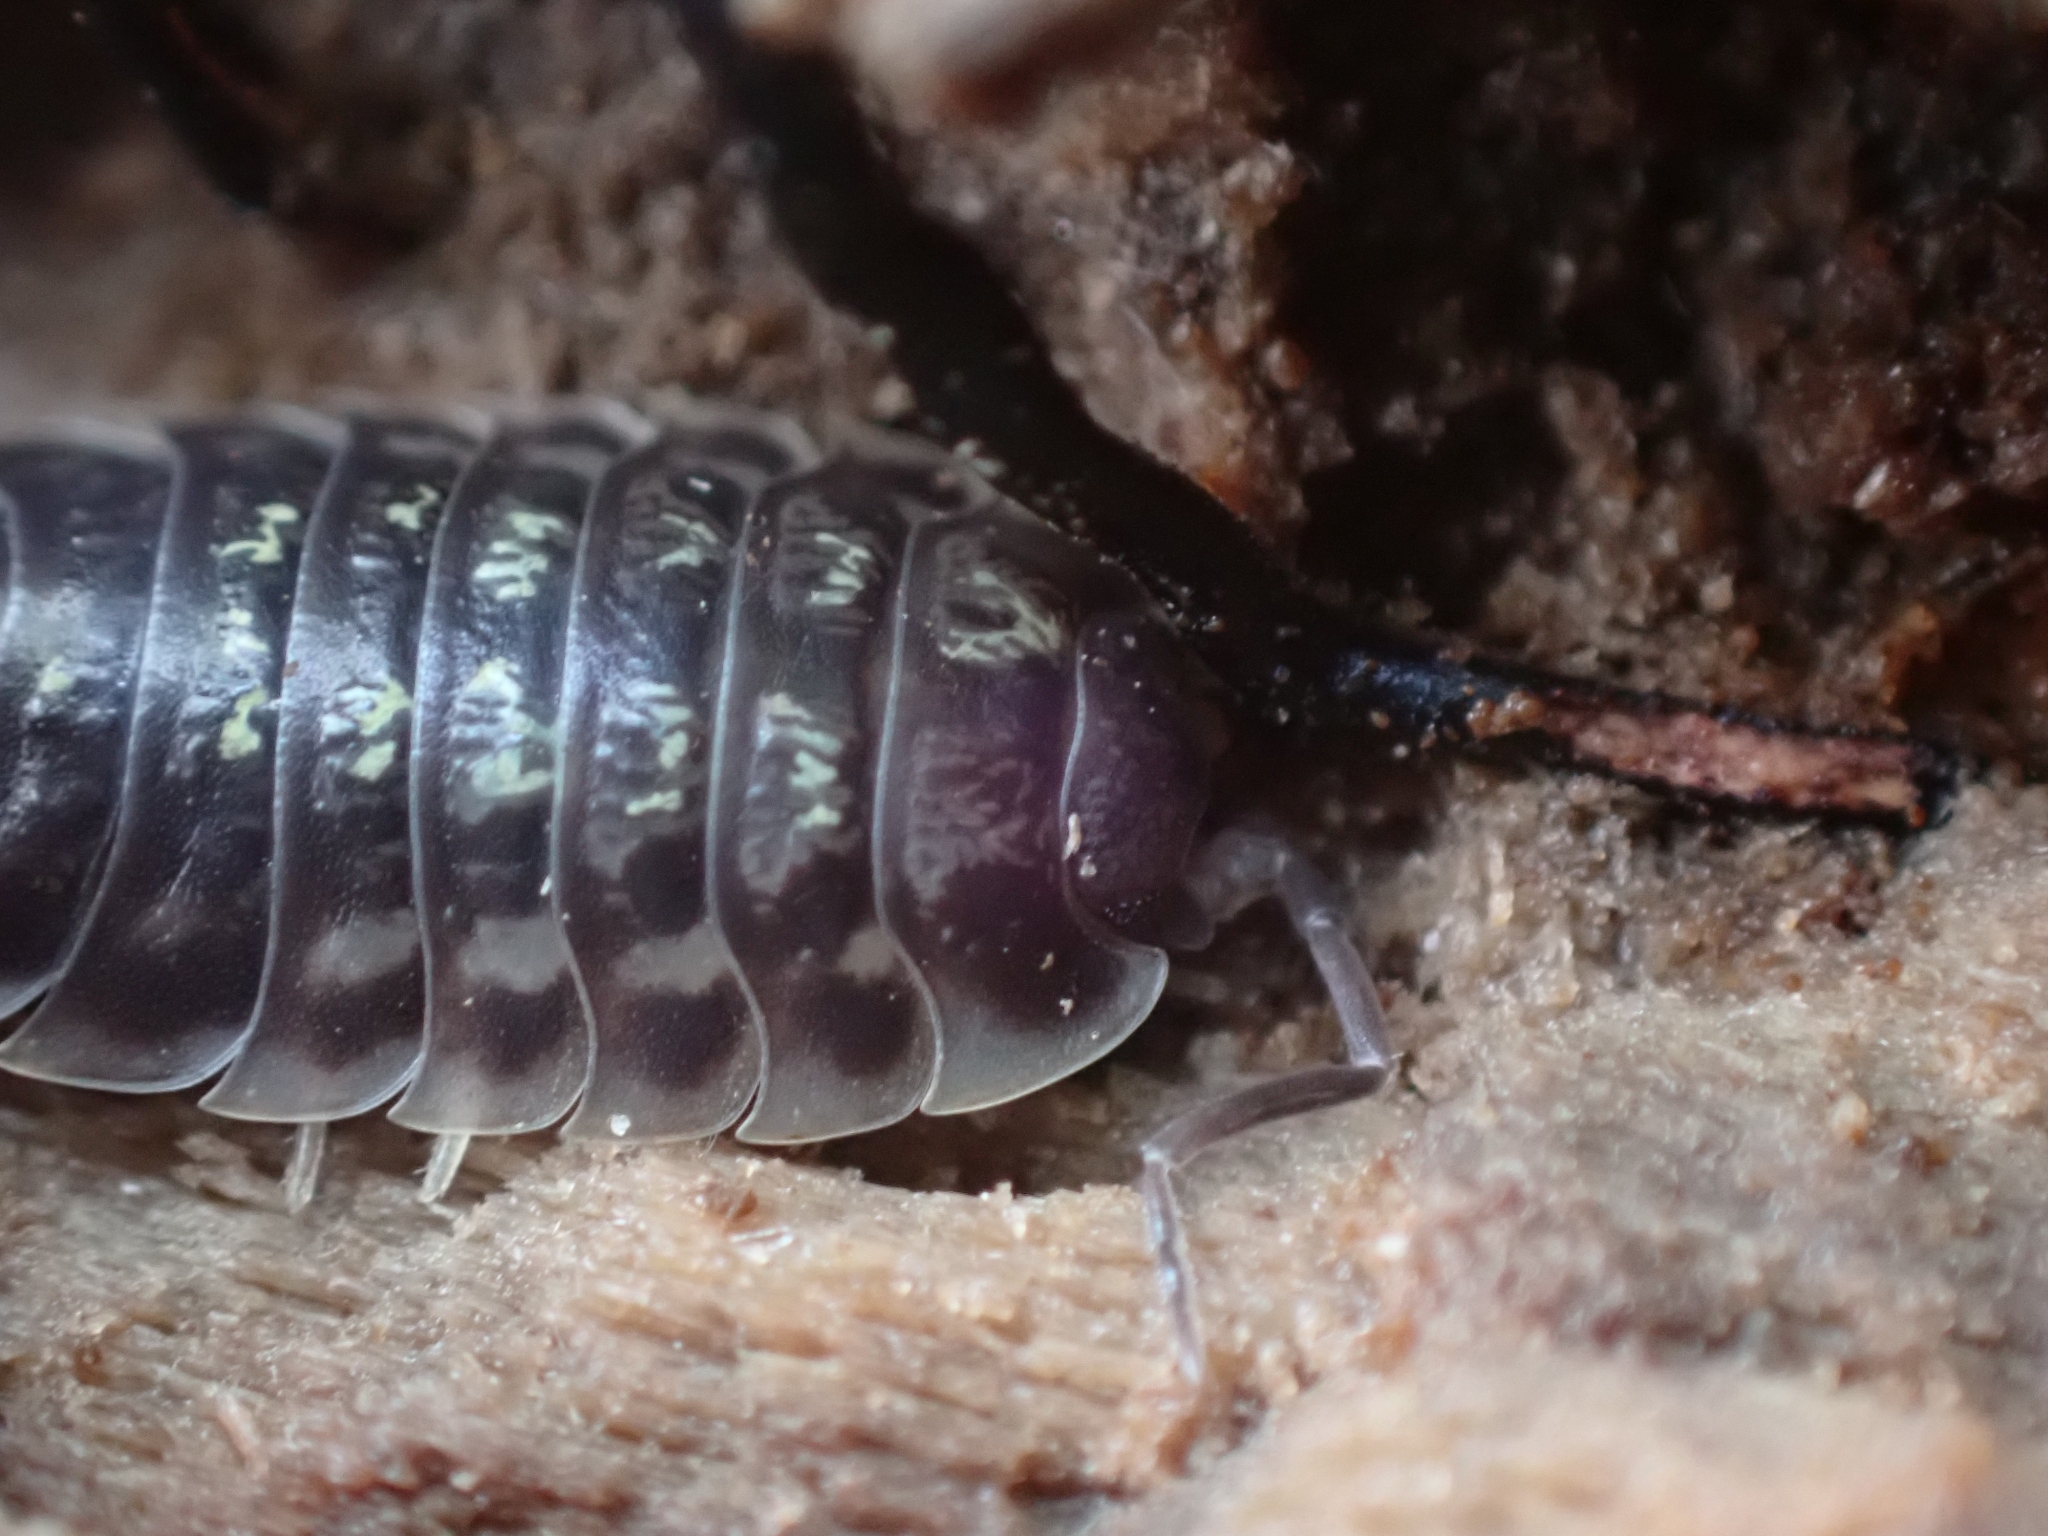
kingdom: Animalia
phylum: Arthropoda
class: Malacostraca
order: Isopoda
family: Oniscidae
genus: Oniscus
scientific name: Oniscus asellus
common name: Common shiny woodlouse
